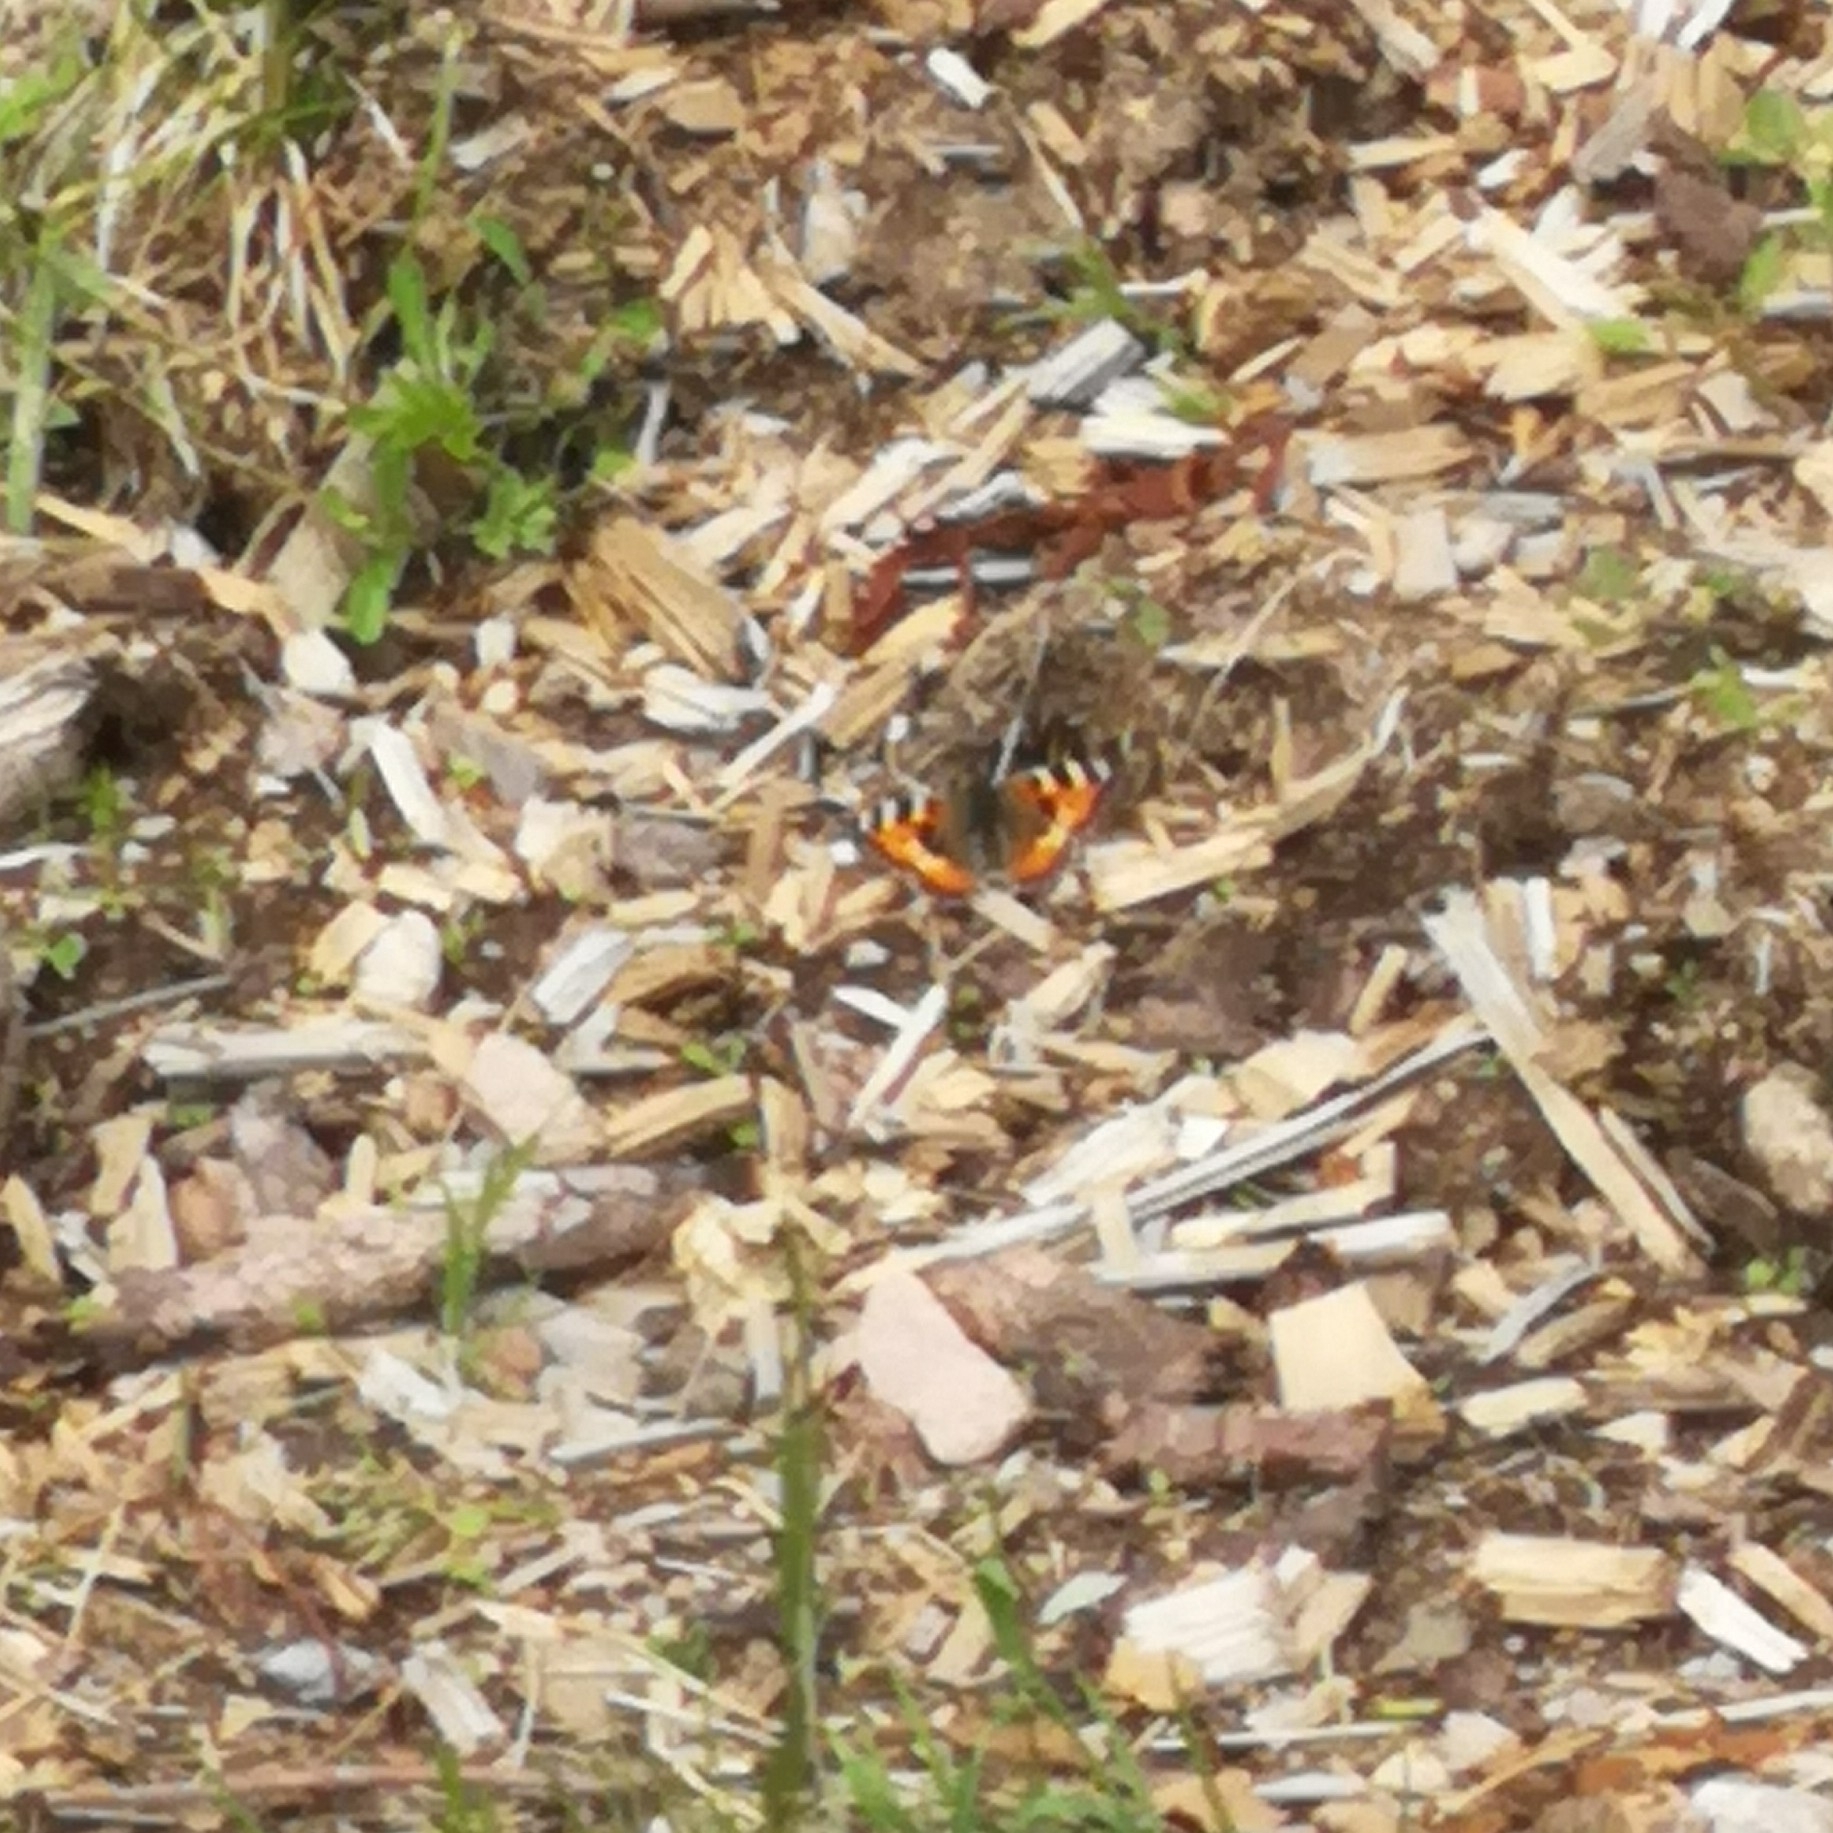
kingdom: Animalia
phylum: Arthropoda
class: Insecta
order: Lepidoptera
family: Nymphalidae
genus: Aglais
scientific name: Aglais urticae
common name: Small tortoiseshell
